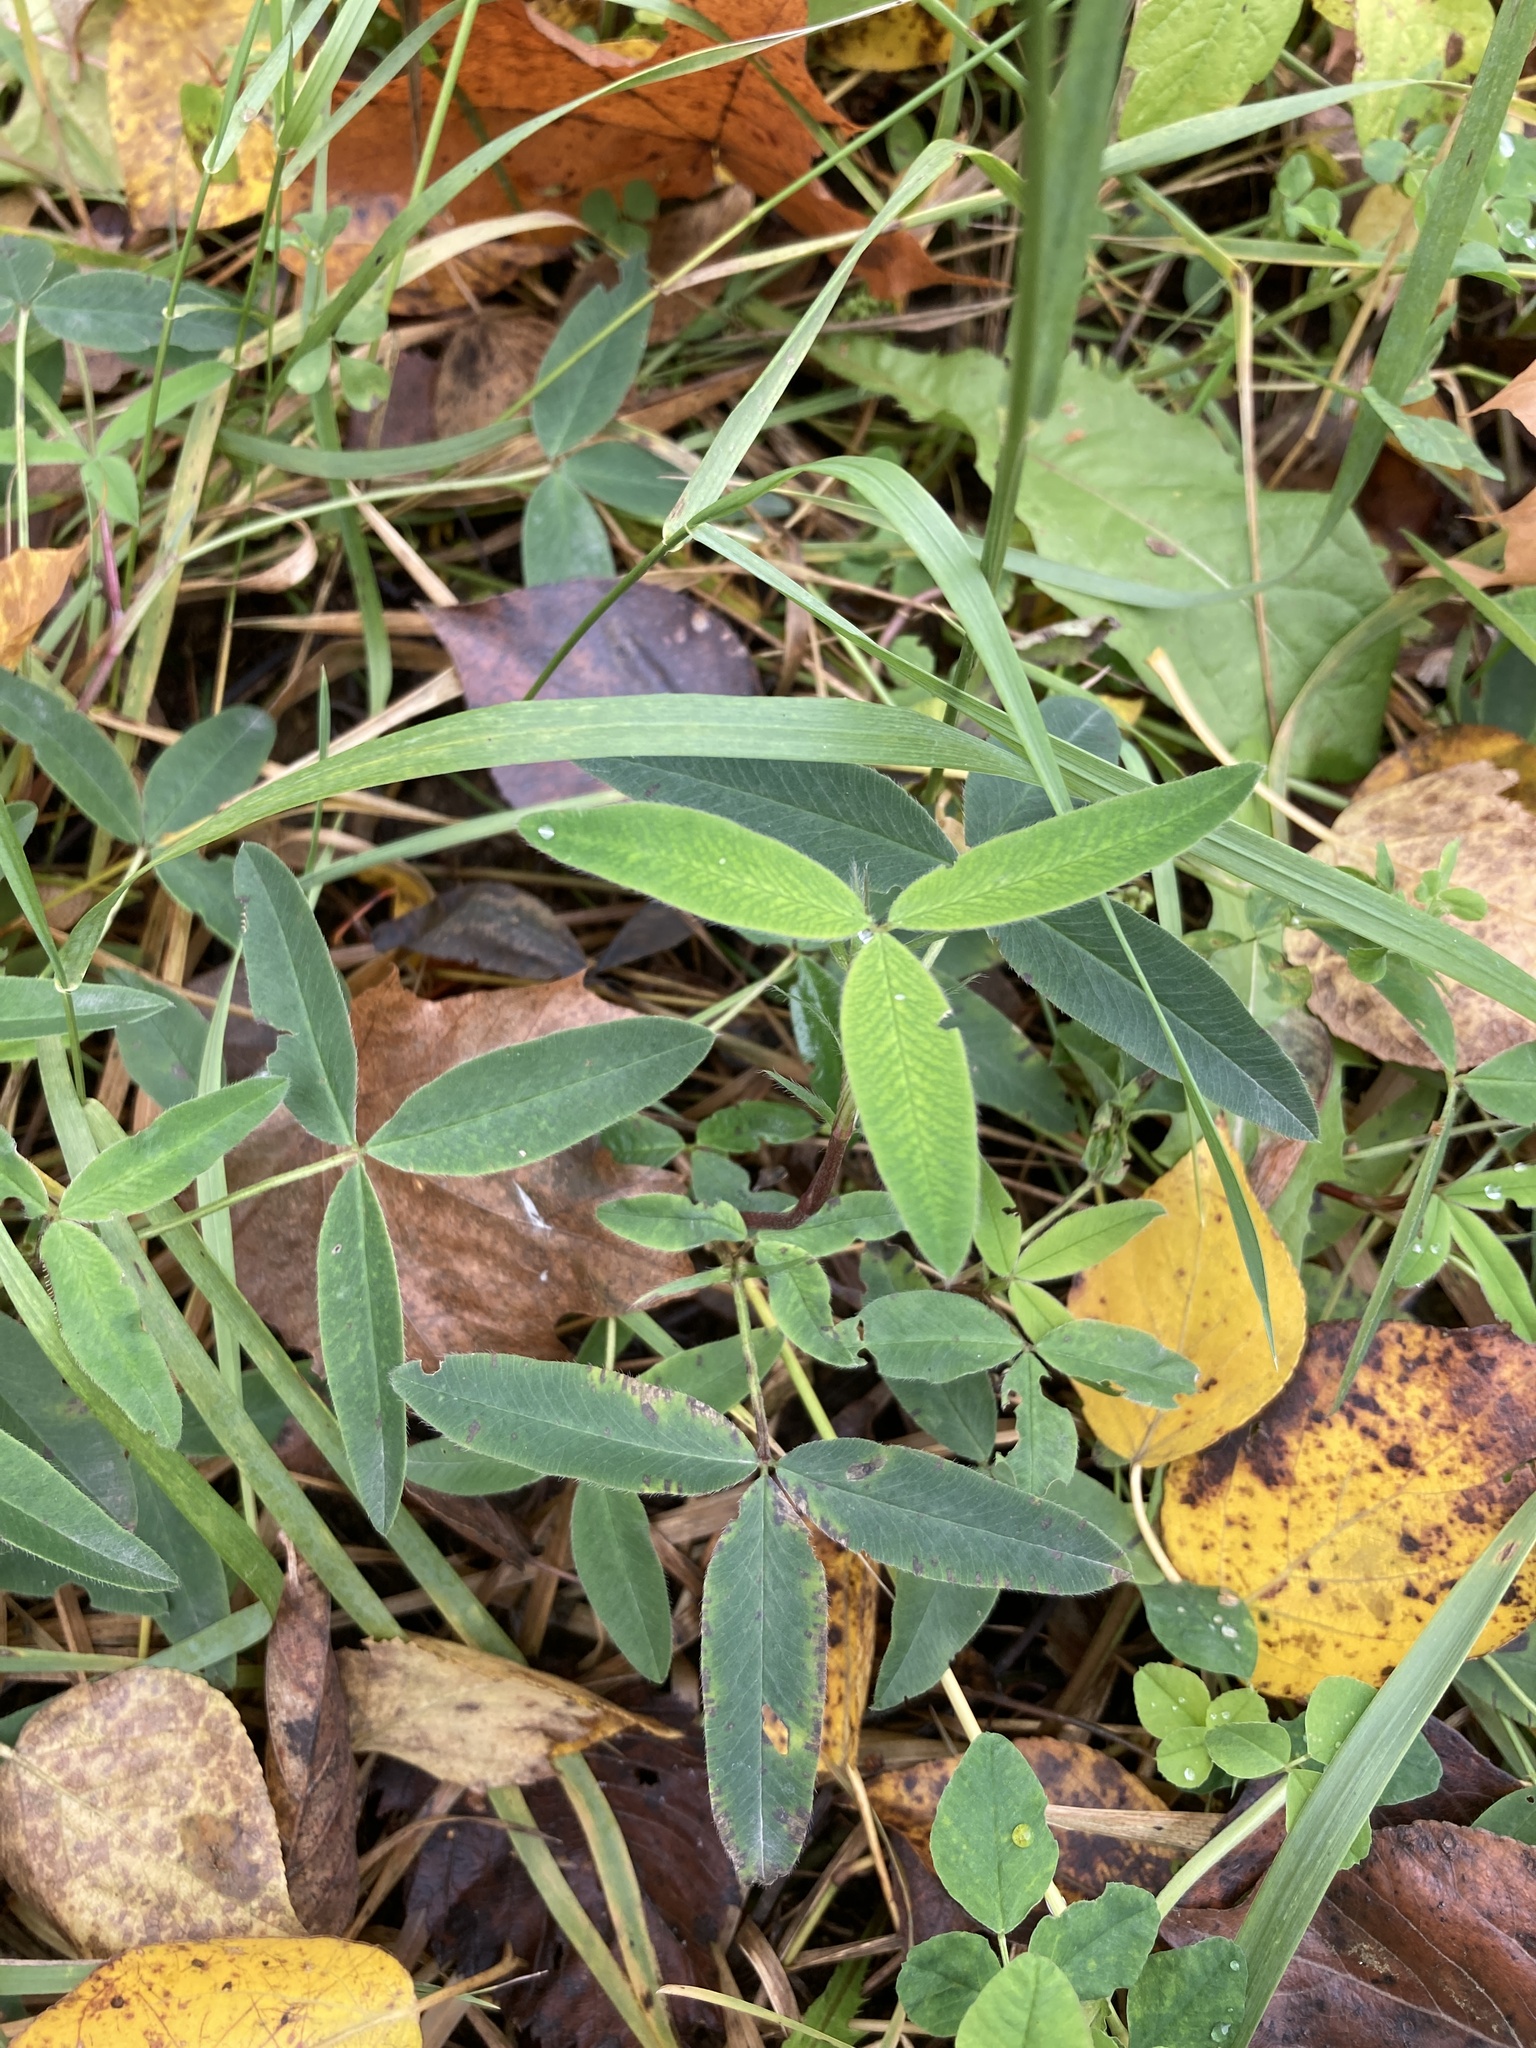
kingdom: Plantae
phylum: Tracheophyta
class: Magnoliopsida
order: Fabales
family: Fabaceae
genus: Trifolium
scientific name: Trifolium medium
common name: Zigzag clover
